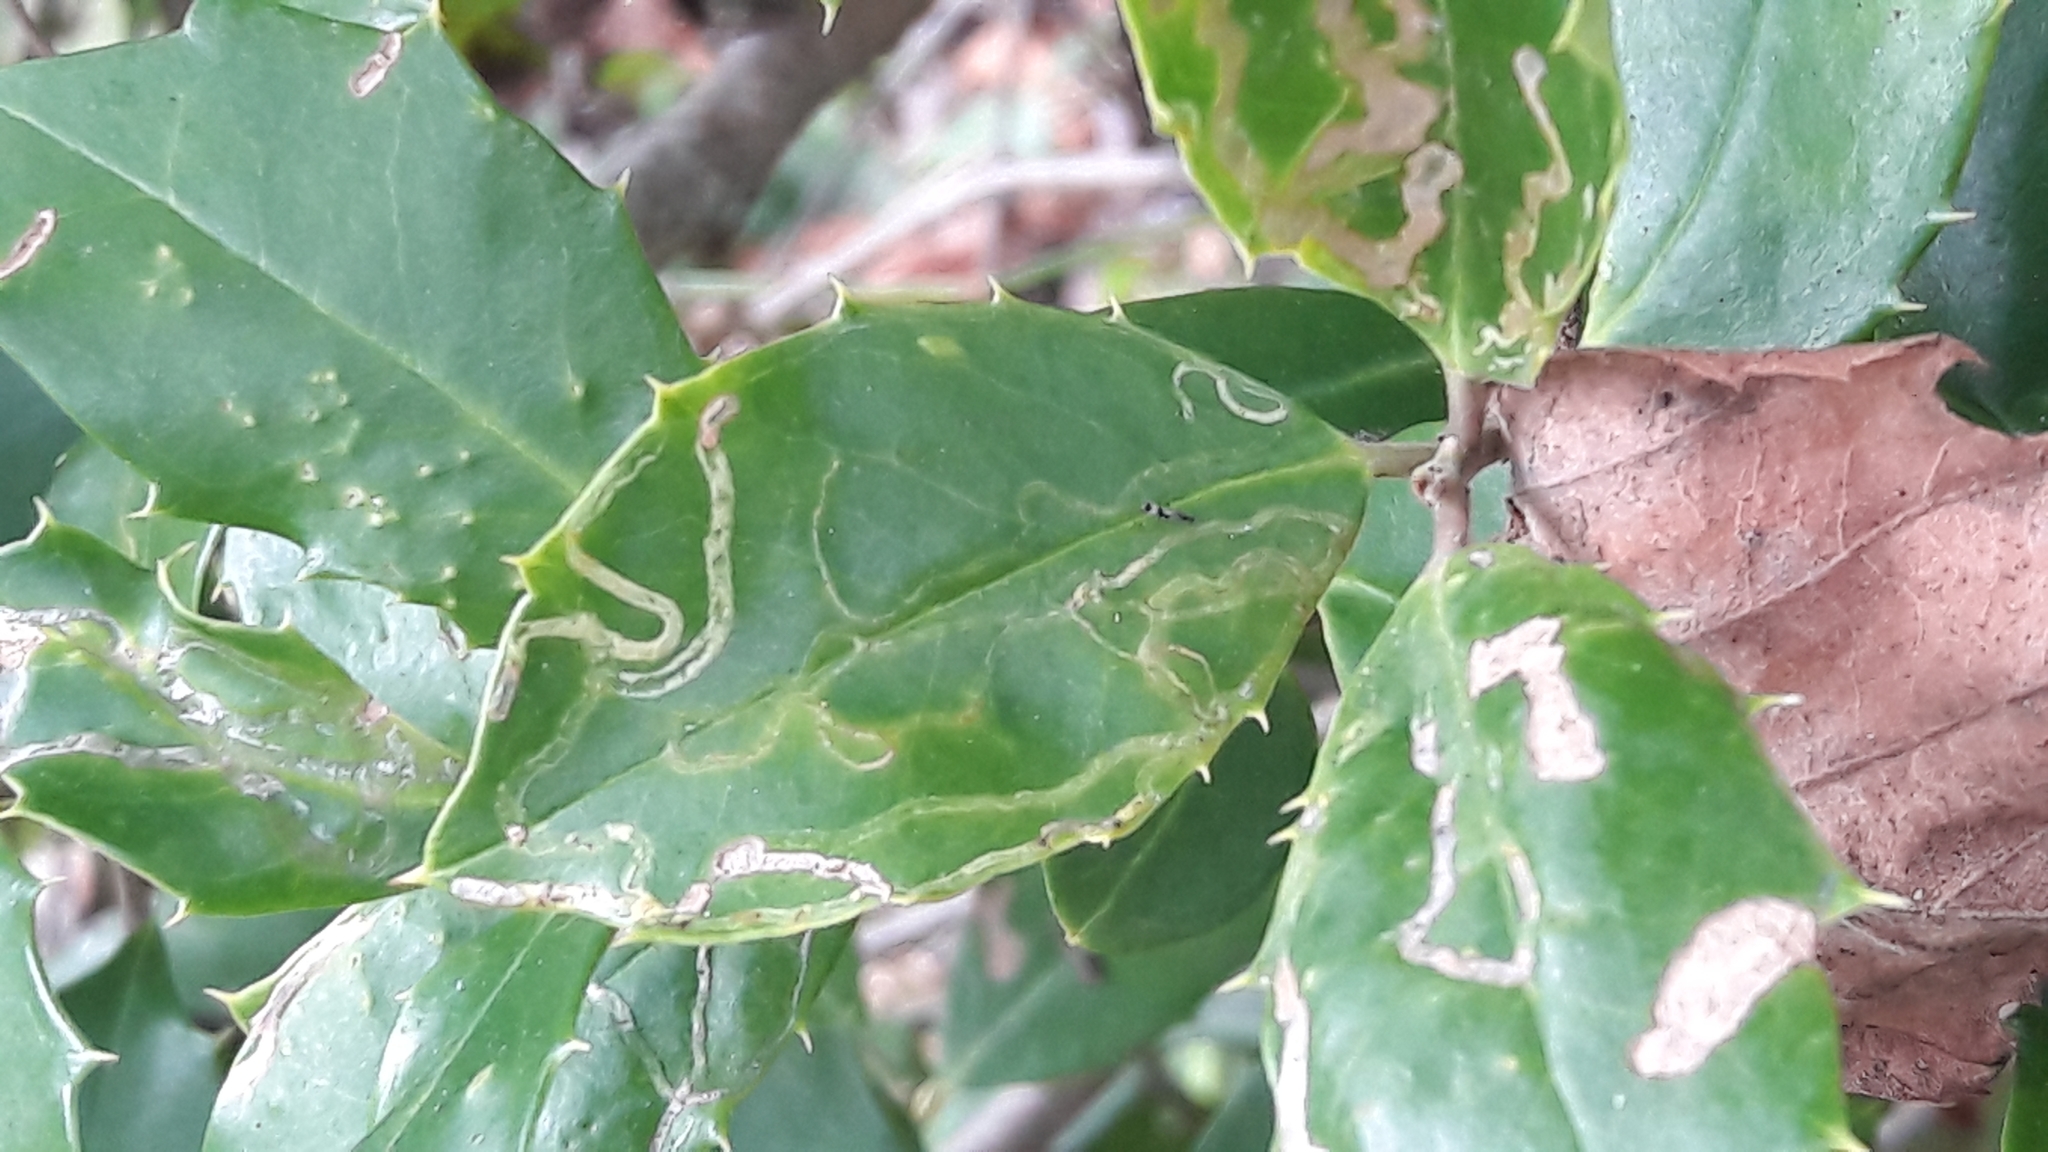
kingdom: Animalia
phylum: Arthropoda
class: Insecta
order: Diptera
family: Agromyzidae
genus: Phytomyza
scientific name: Phytomyza opacae
